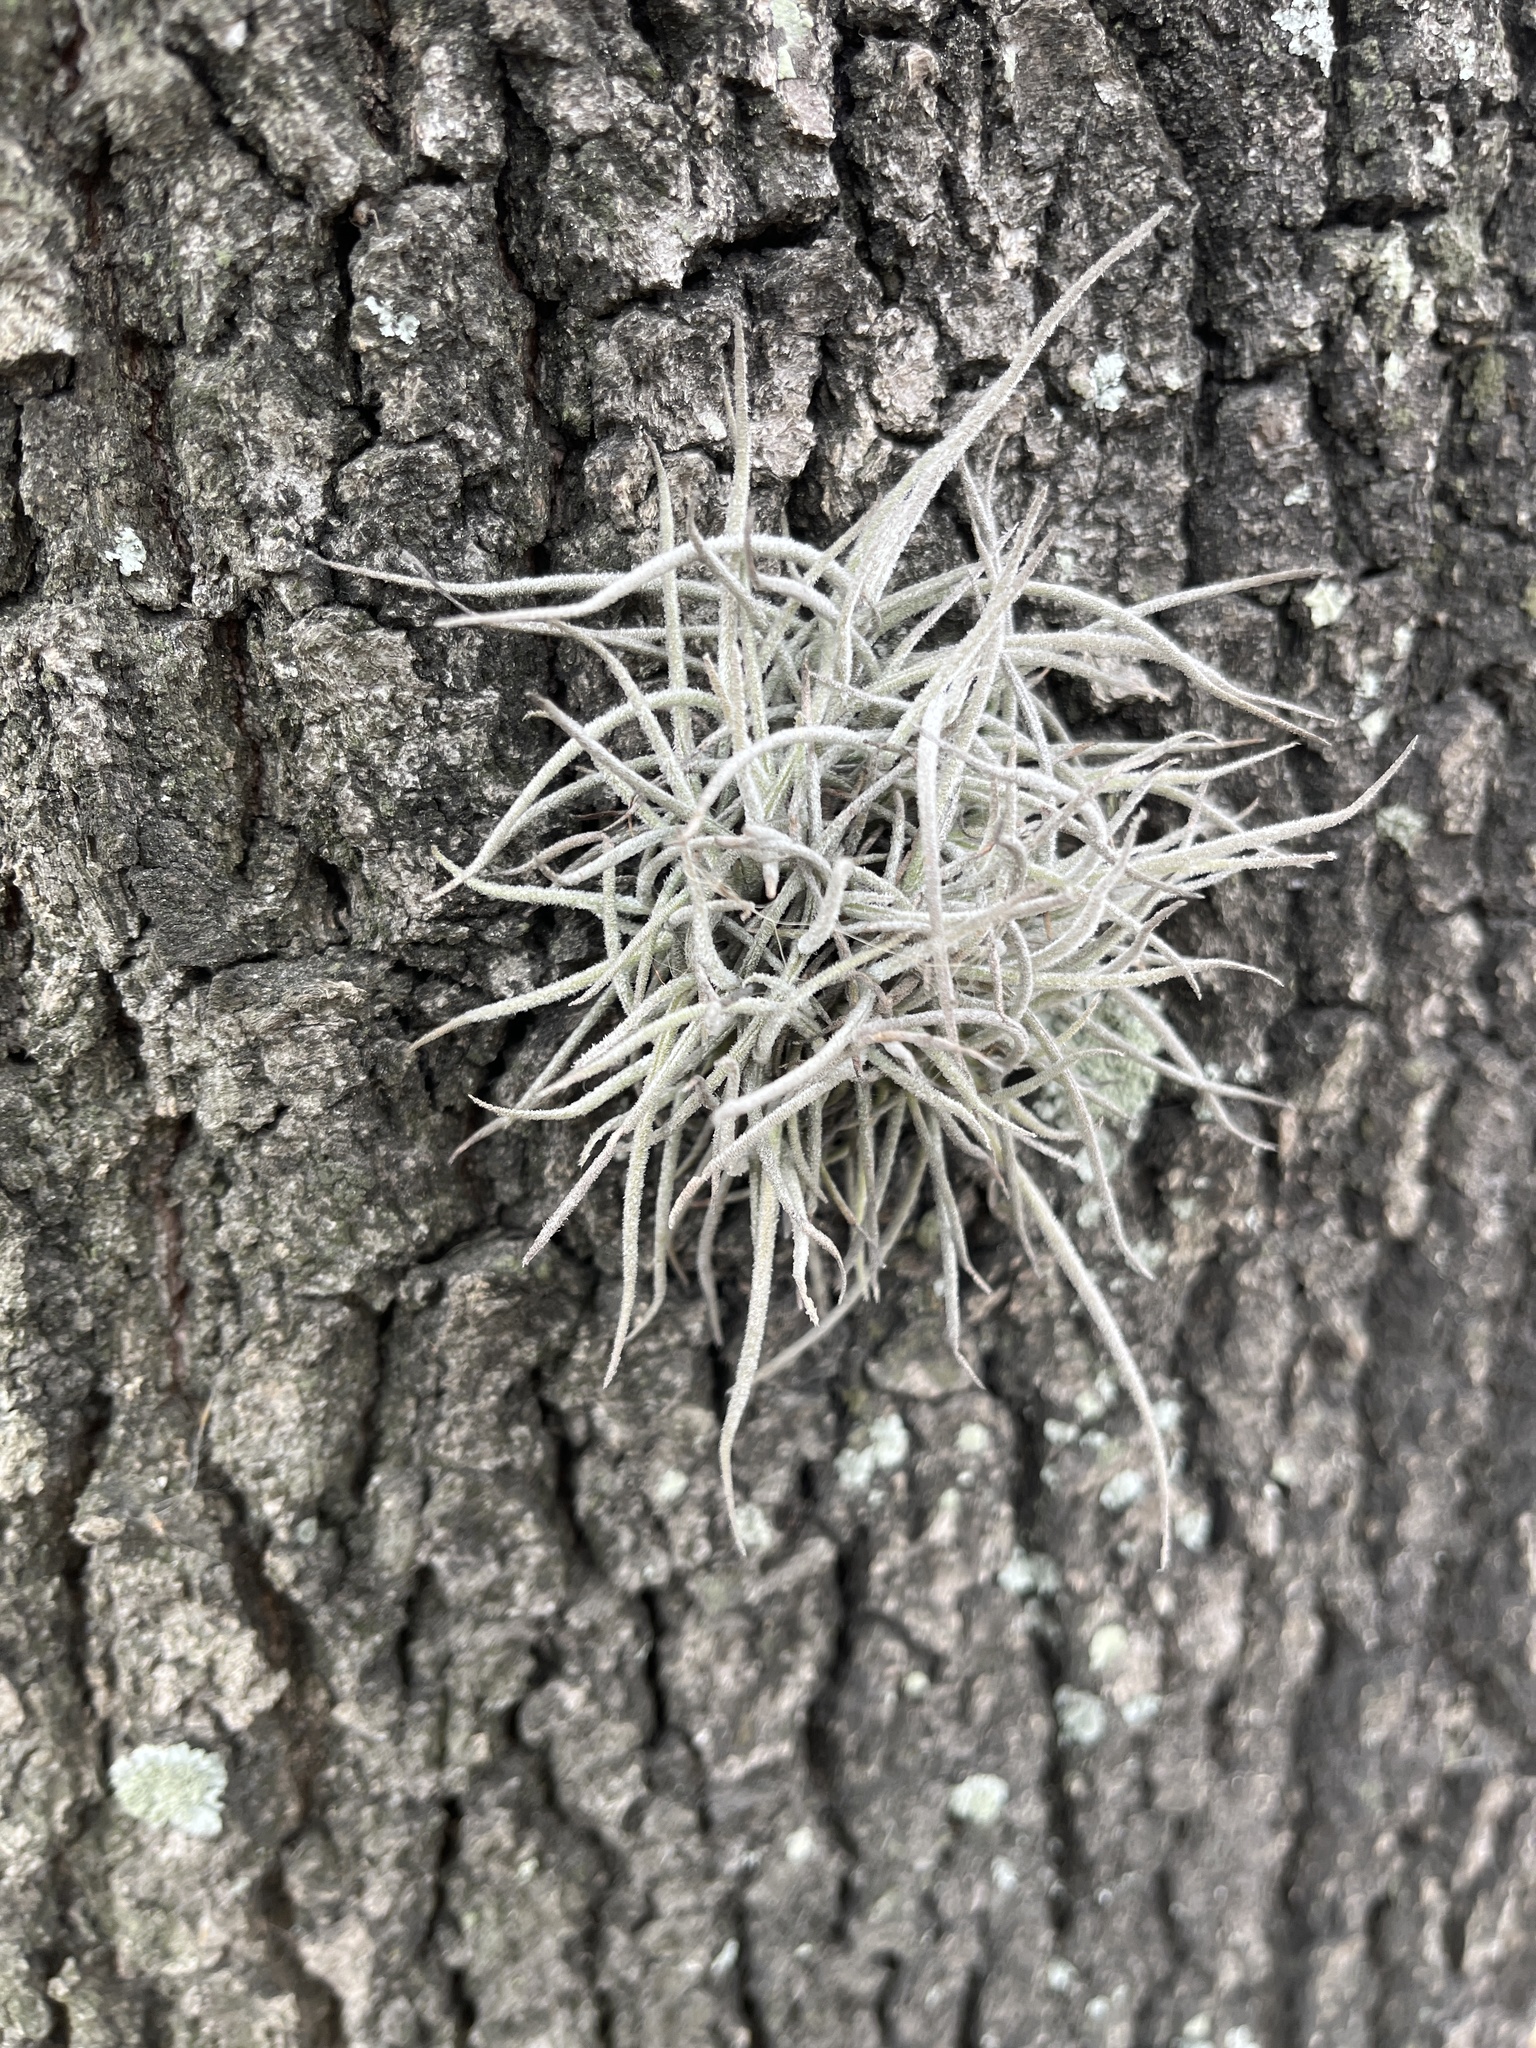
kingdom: Plantae
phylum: Tracheophyta
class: Liliopsida
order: Poales
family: Bromeliaceae
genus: Tillandsia
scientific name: Tillandsia recurvata
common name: Small ballmoss
